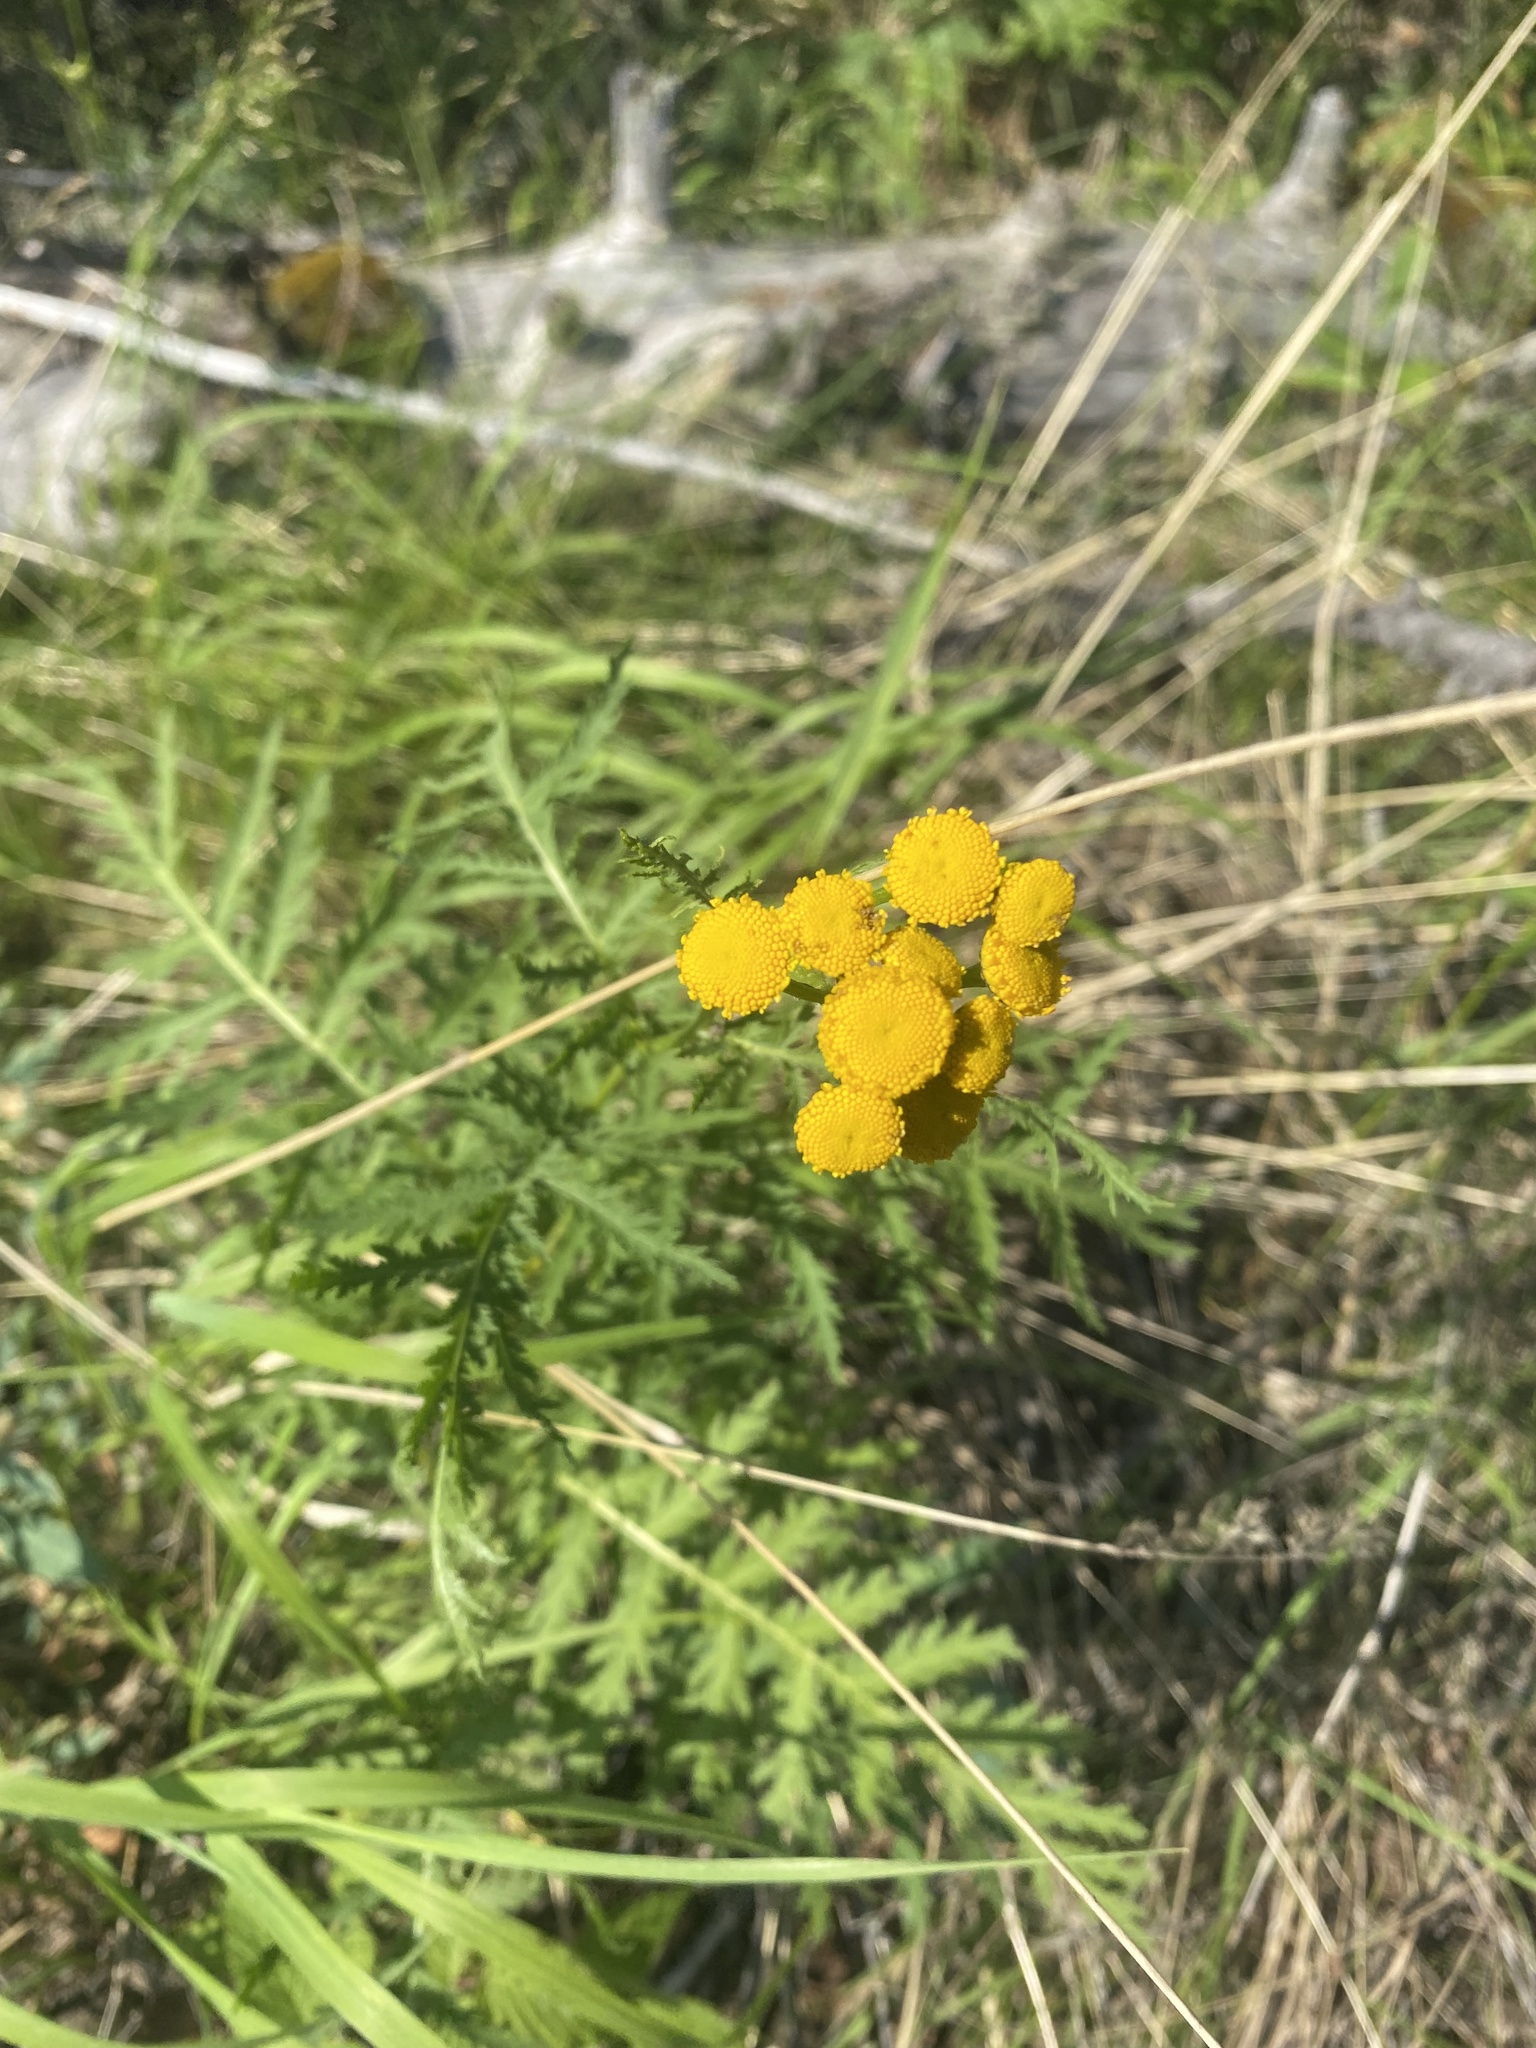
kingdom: Plantae
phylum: Tracheophyta
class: Magnoliopsida
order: Asterales
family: Asteraceae
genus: Tanacetum
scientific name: Tanacetum vulgare
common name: Common tansy
